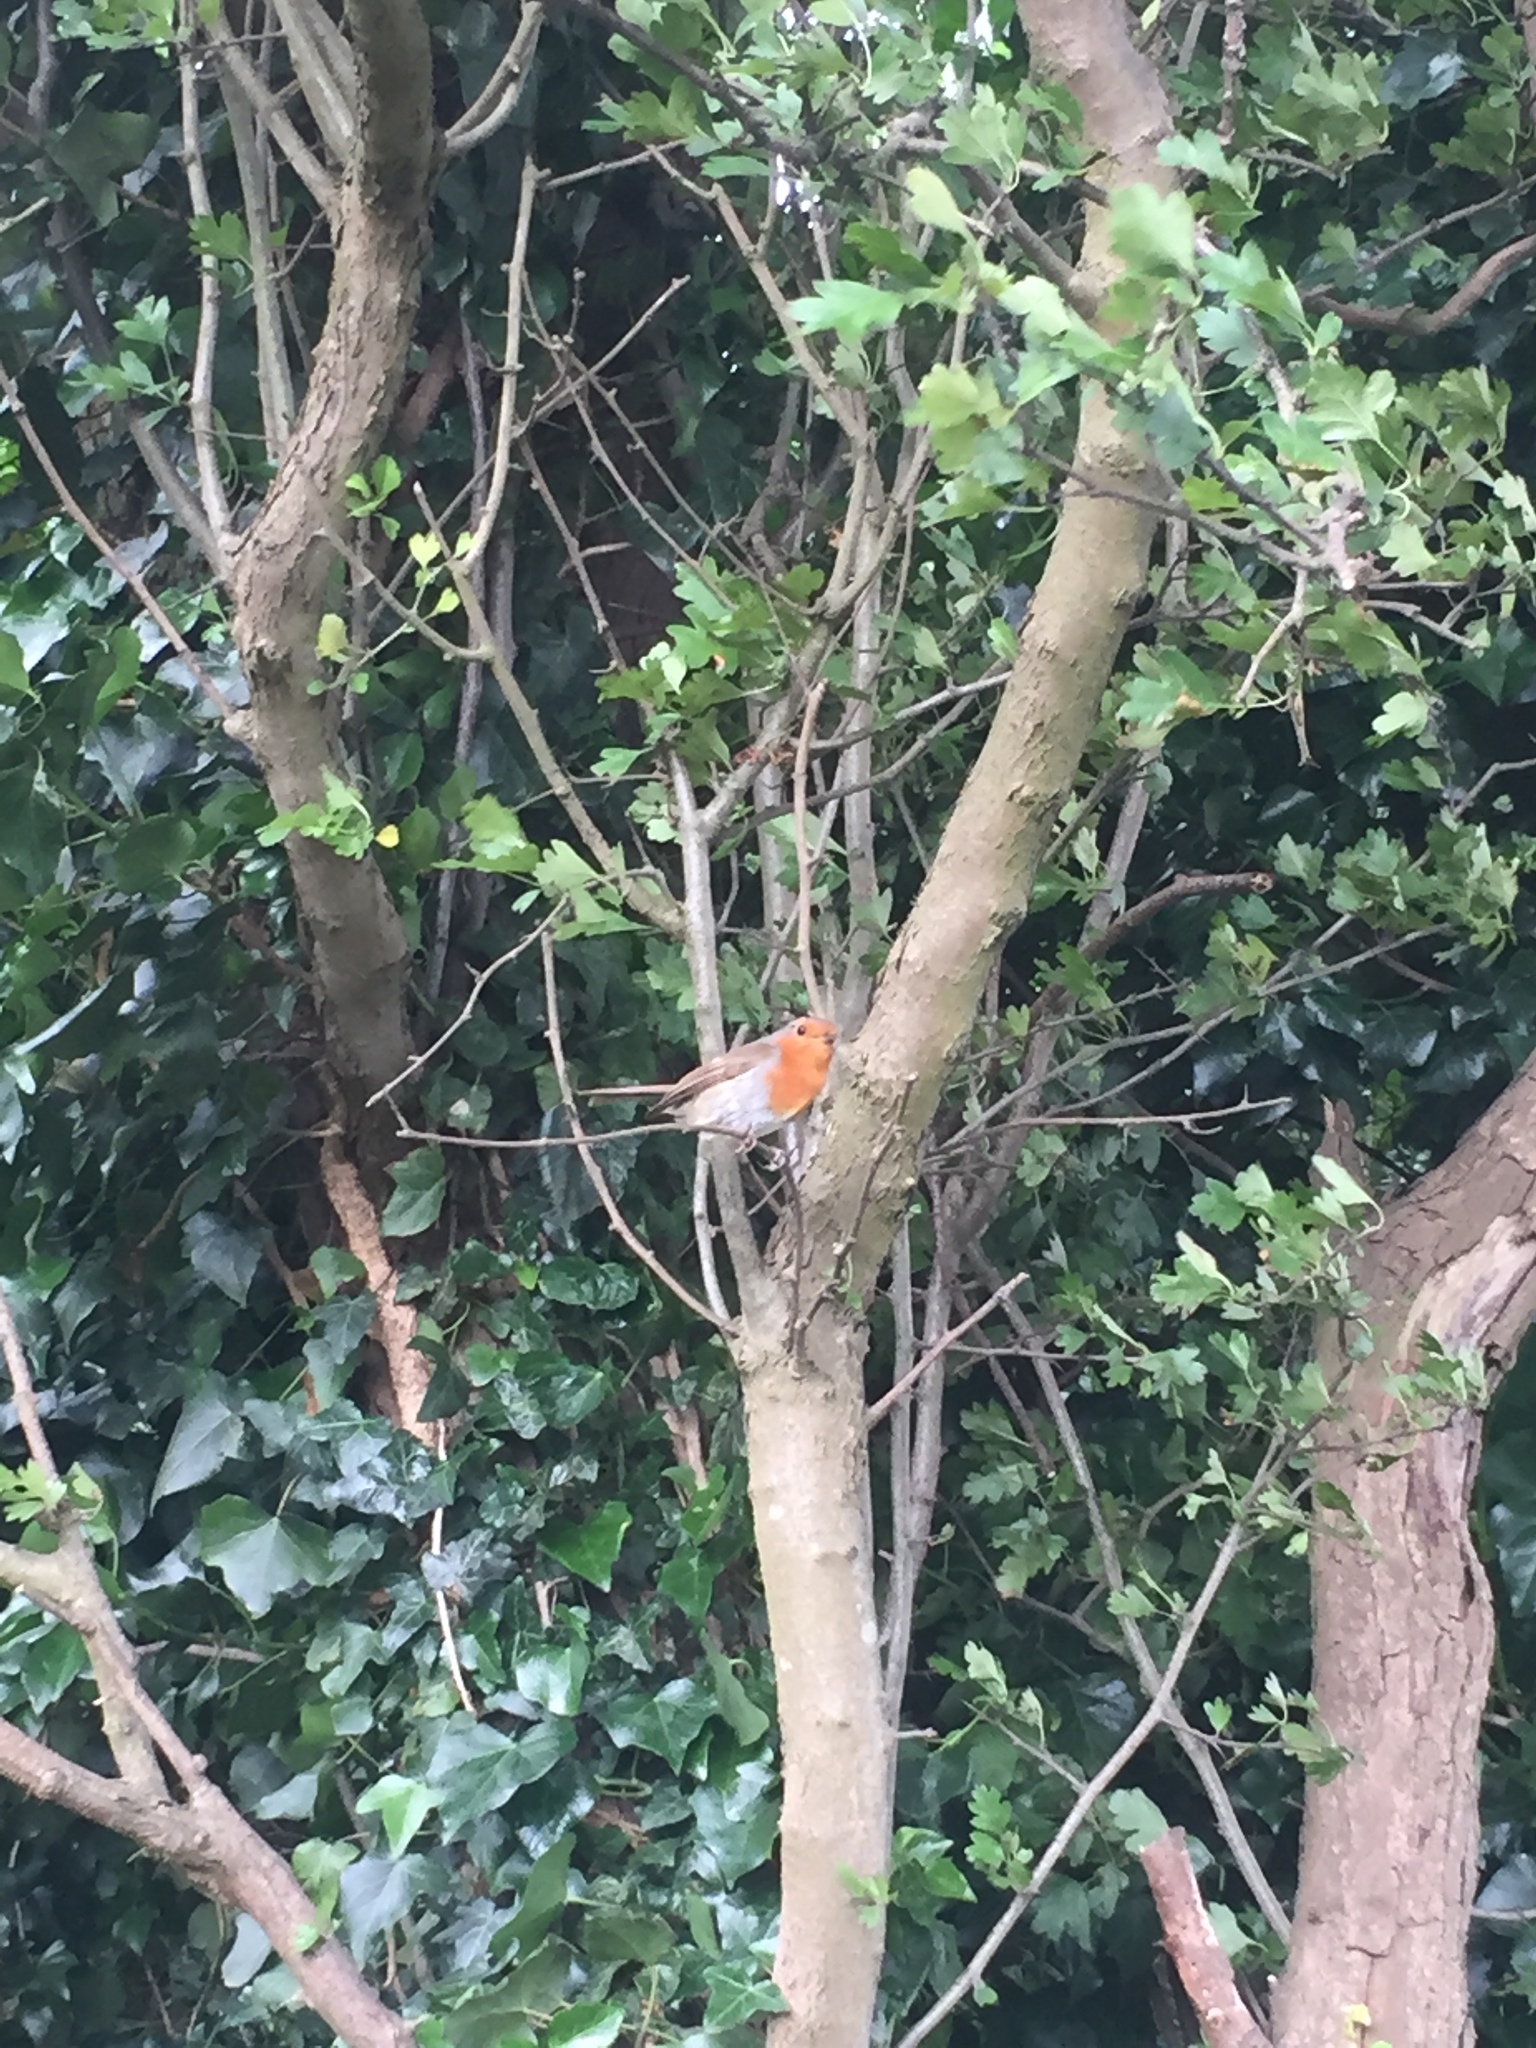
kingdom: Animalia
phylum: Chordata
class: Aves
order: Passeriformes
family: Muscicapidae
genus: Erithacus
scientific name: Erithacus rubecula
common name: European robin
